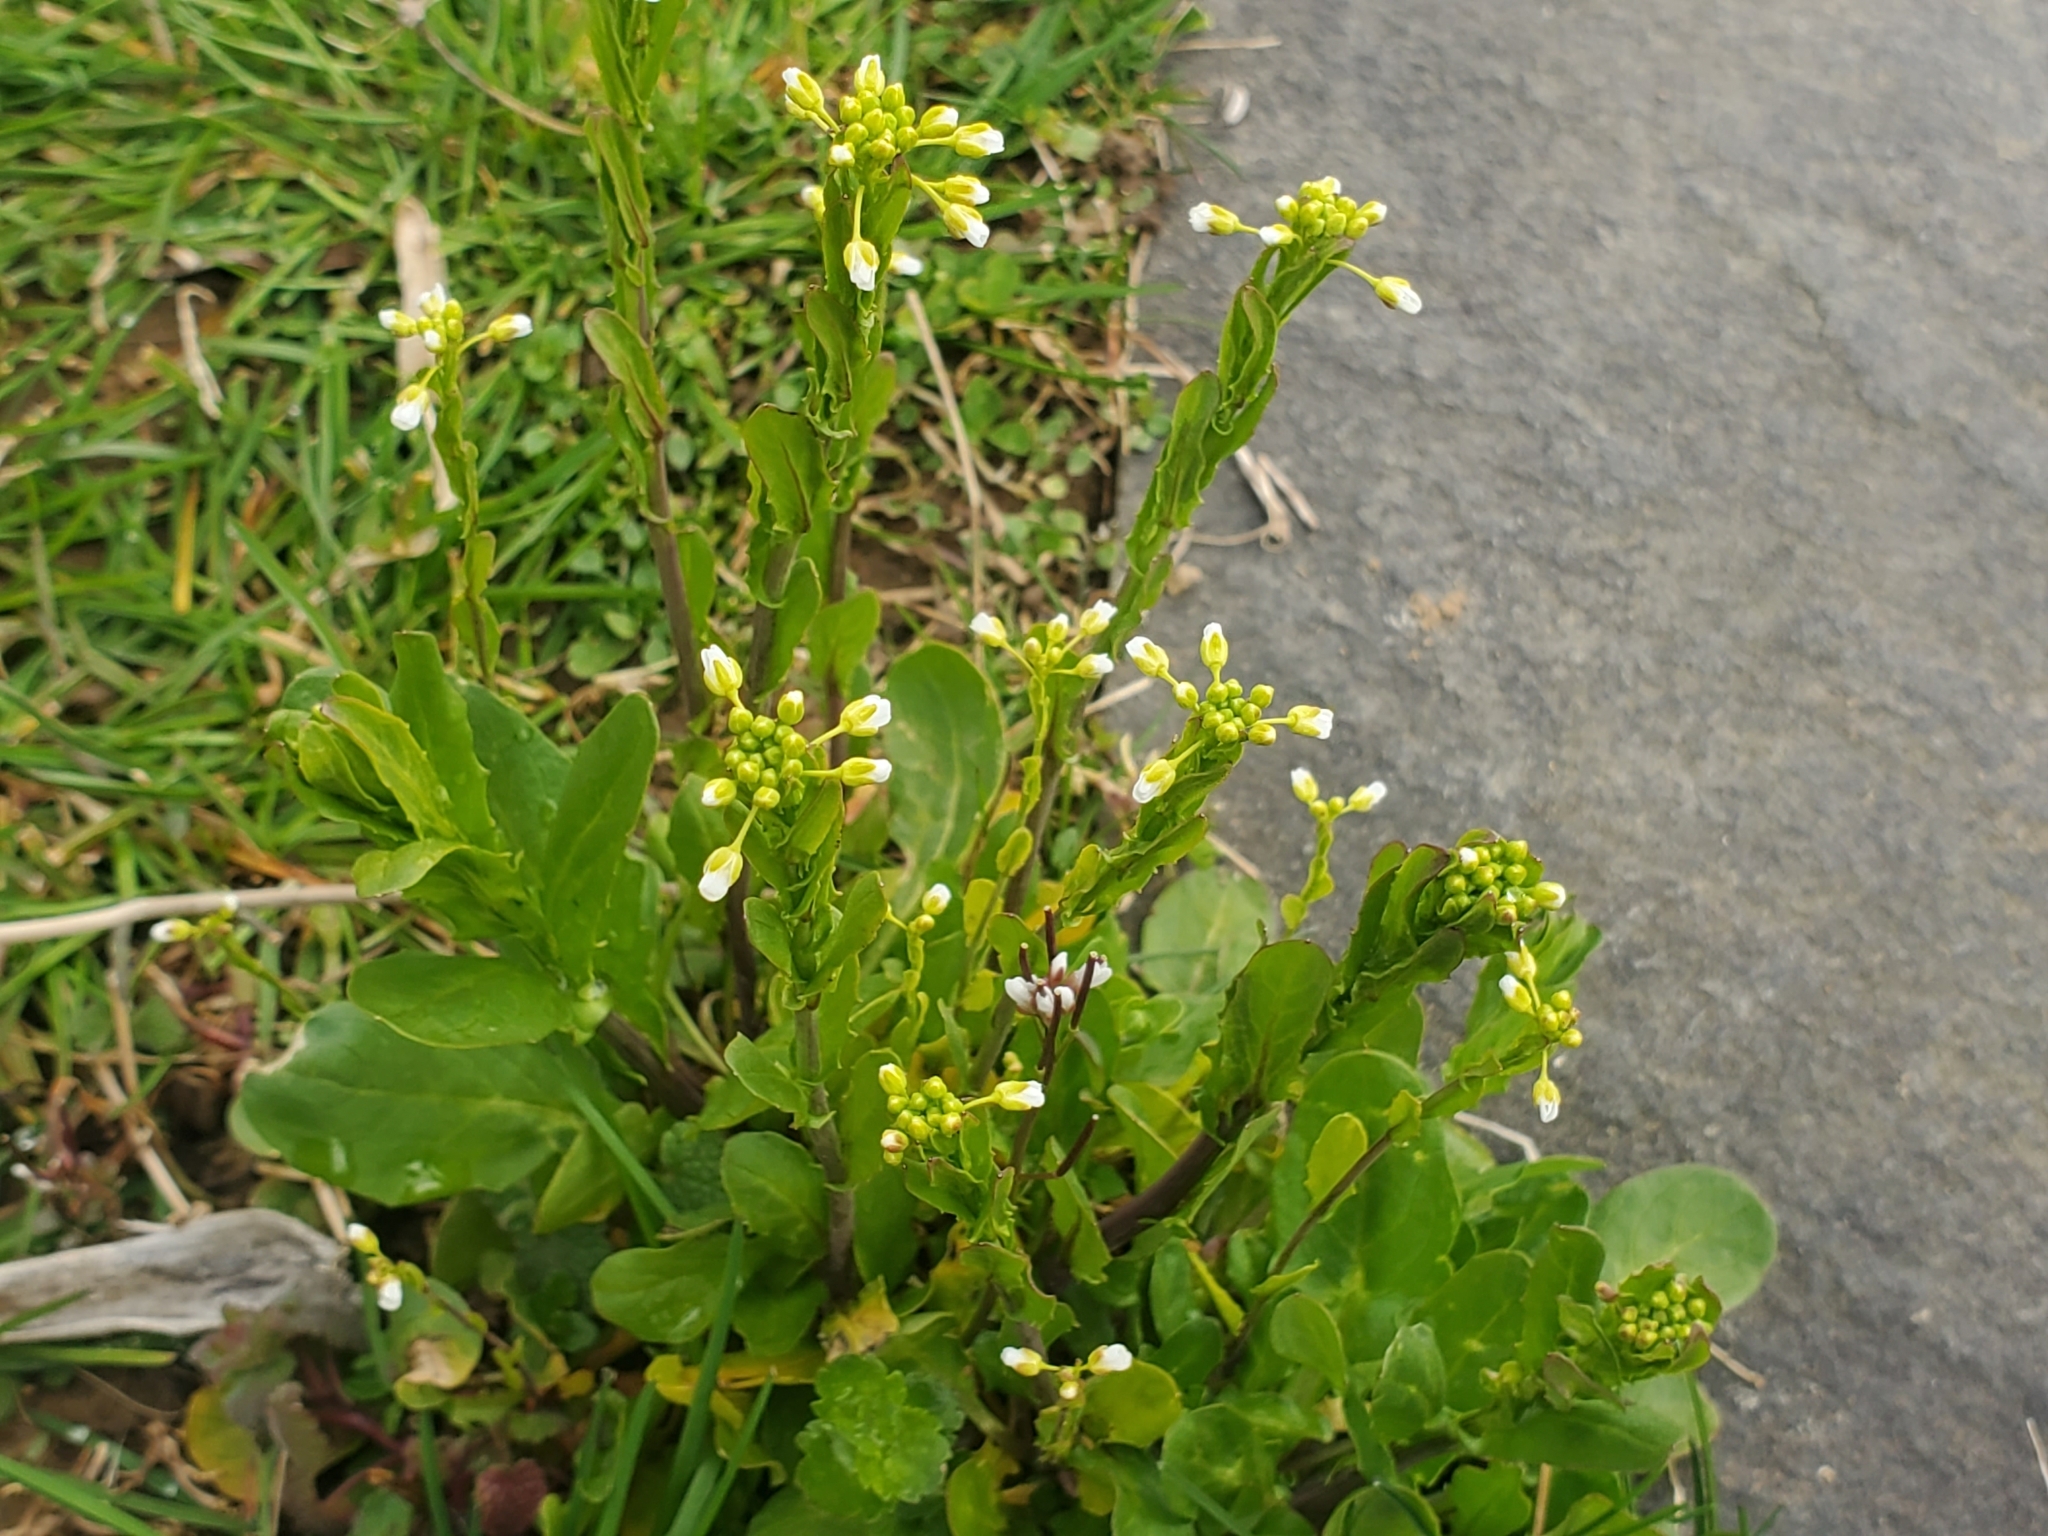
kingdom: Plantae
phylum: Tracheophyta
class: Magnoliopsida
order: Brassicales
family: Brassicaceae
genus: Mummenhoffia
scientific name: Mummenhoffia alliacea
